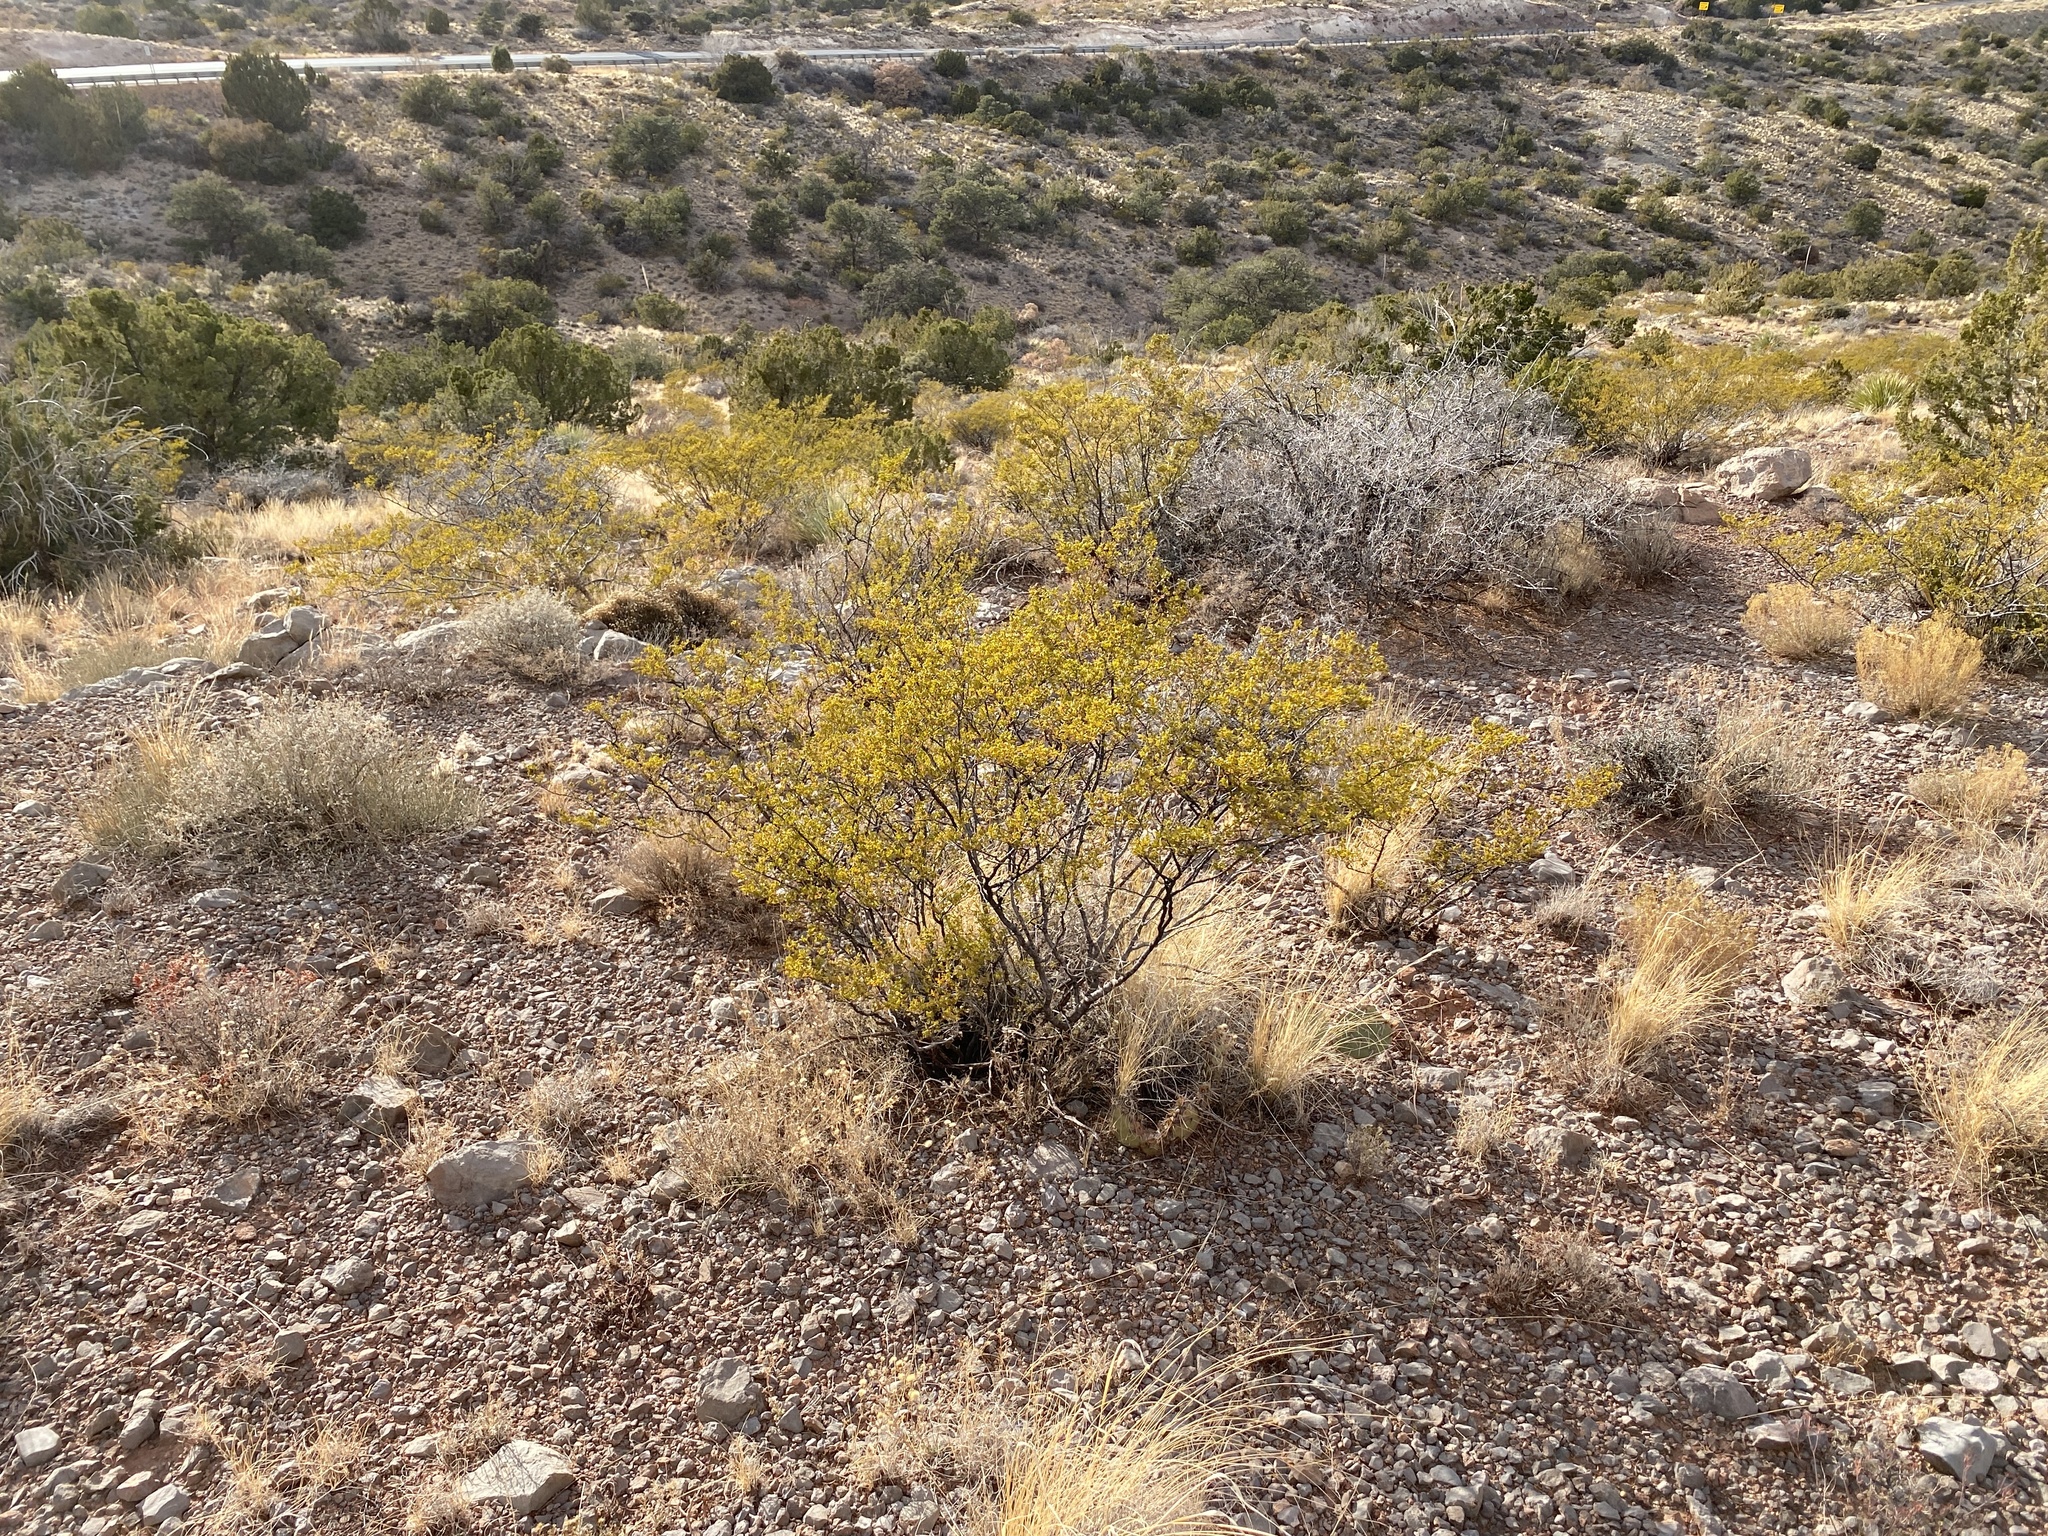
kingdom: Plantae
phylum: Tracheophyta
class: Magnoliopsida
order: Zygophyllales
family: Zygophyllaceae
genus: Larrea
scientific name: Larrea tridentata
